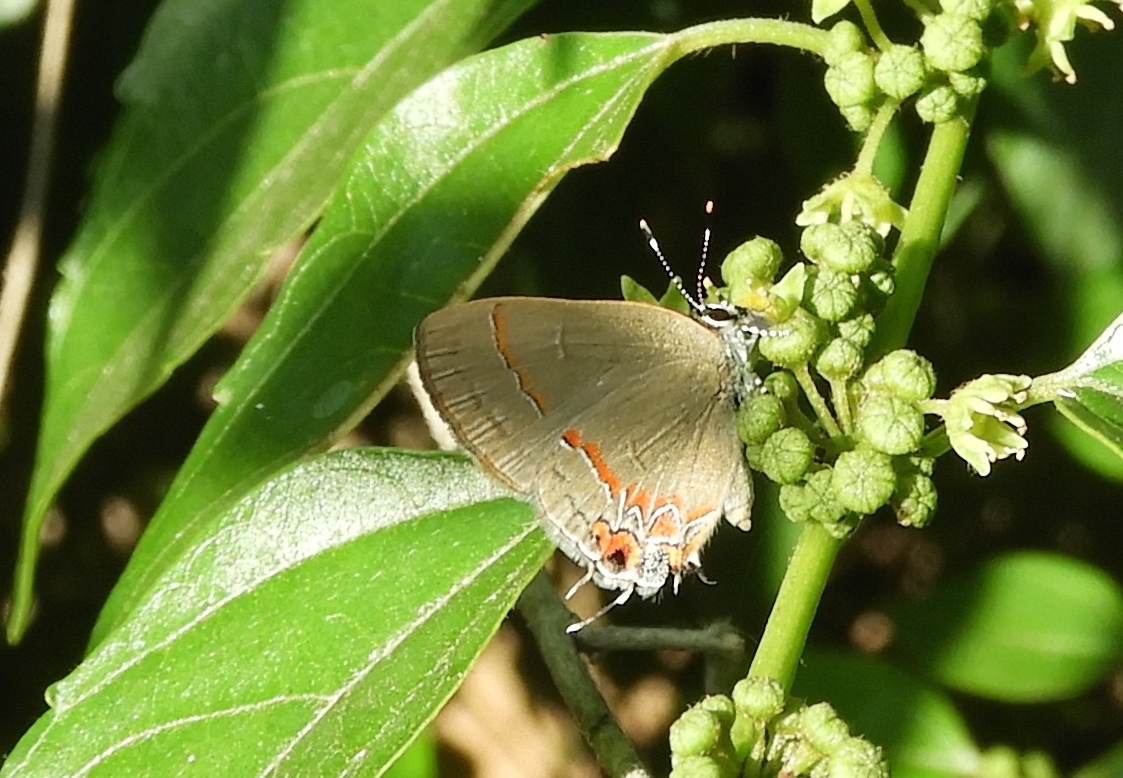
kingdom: Animalia
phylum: Arthropoda
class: Insecta
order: Lepidoptera
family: Lycaenidae
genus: Calycopis
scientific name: Calycopis isobeon
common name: Dusky-blue groundstreak
